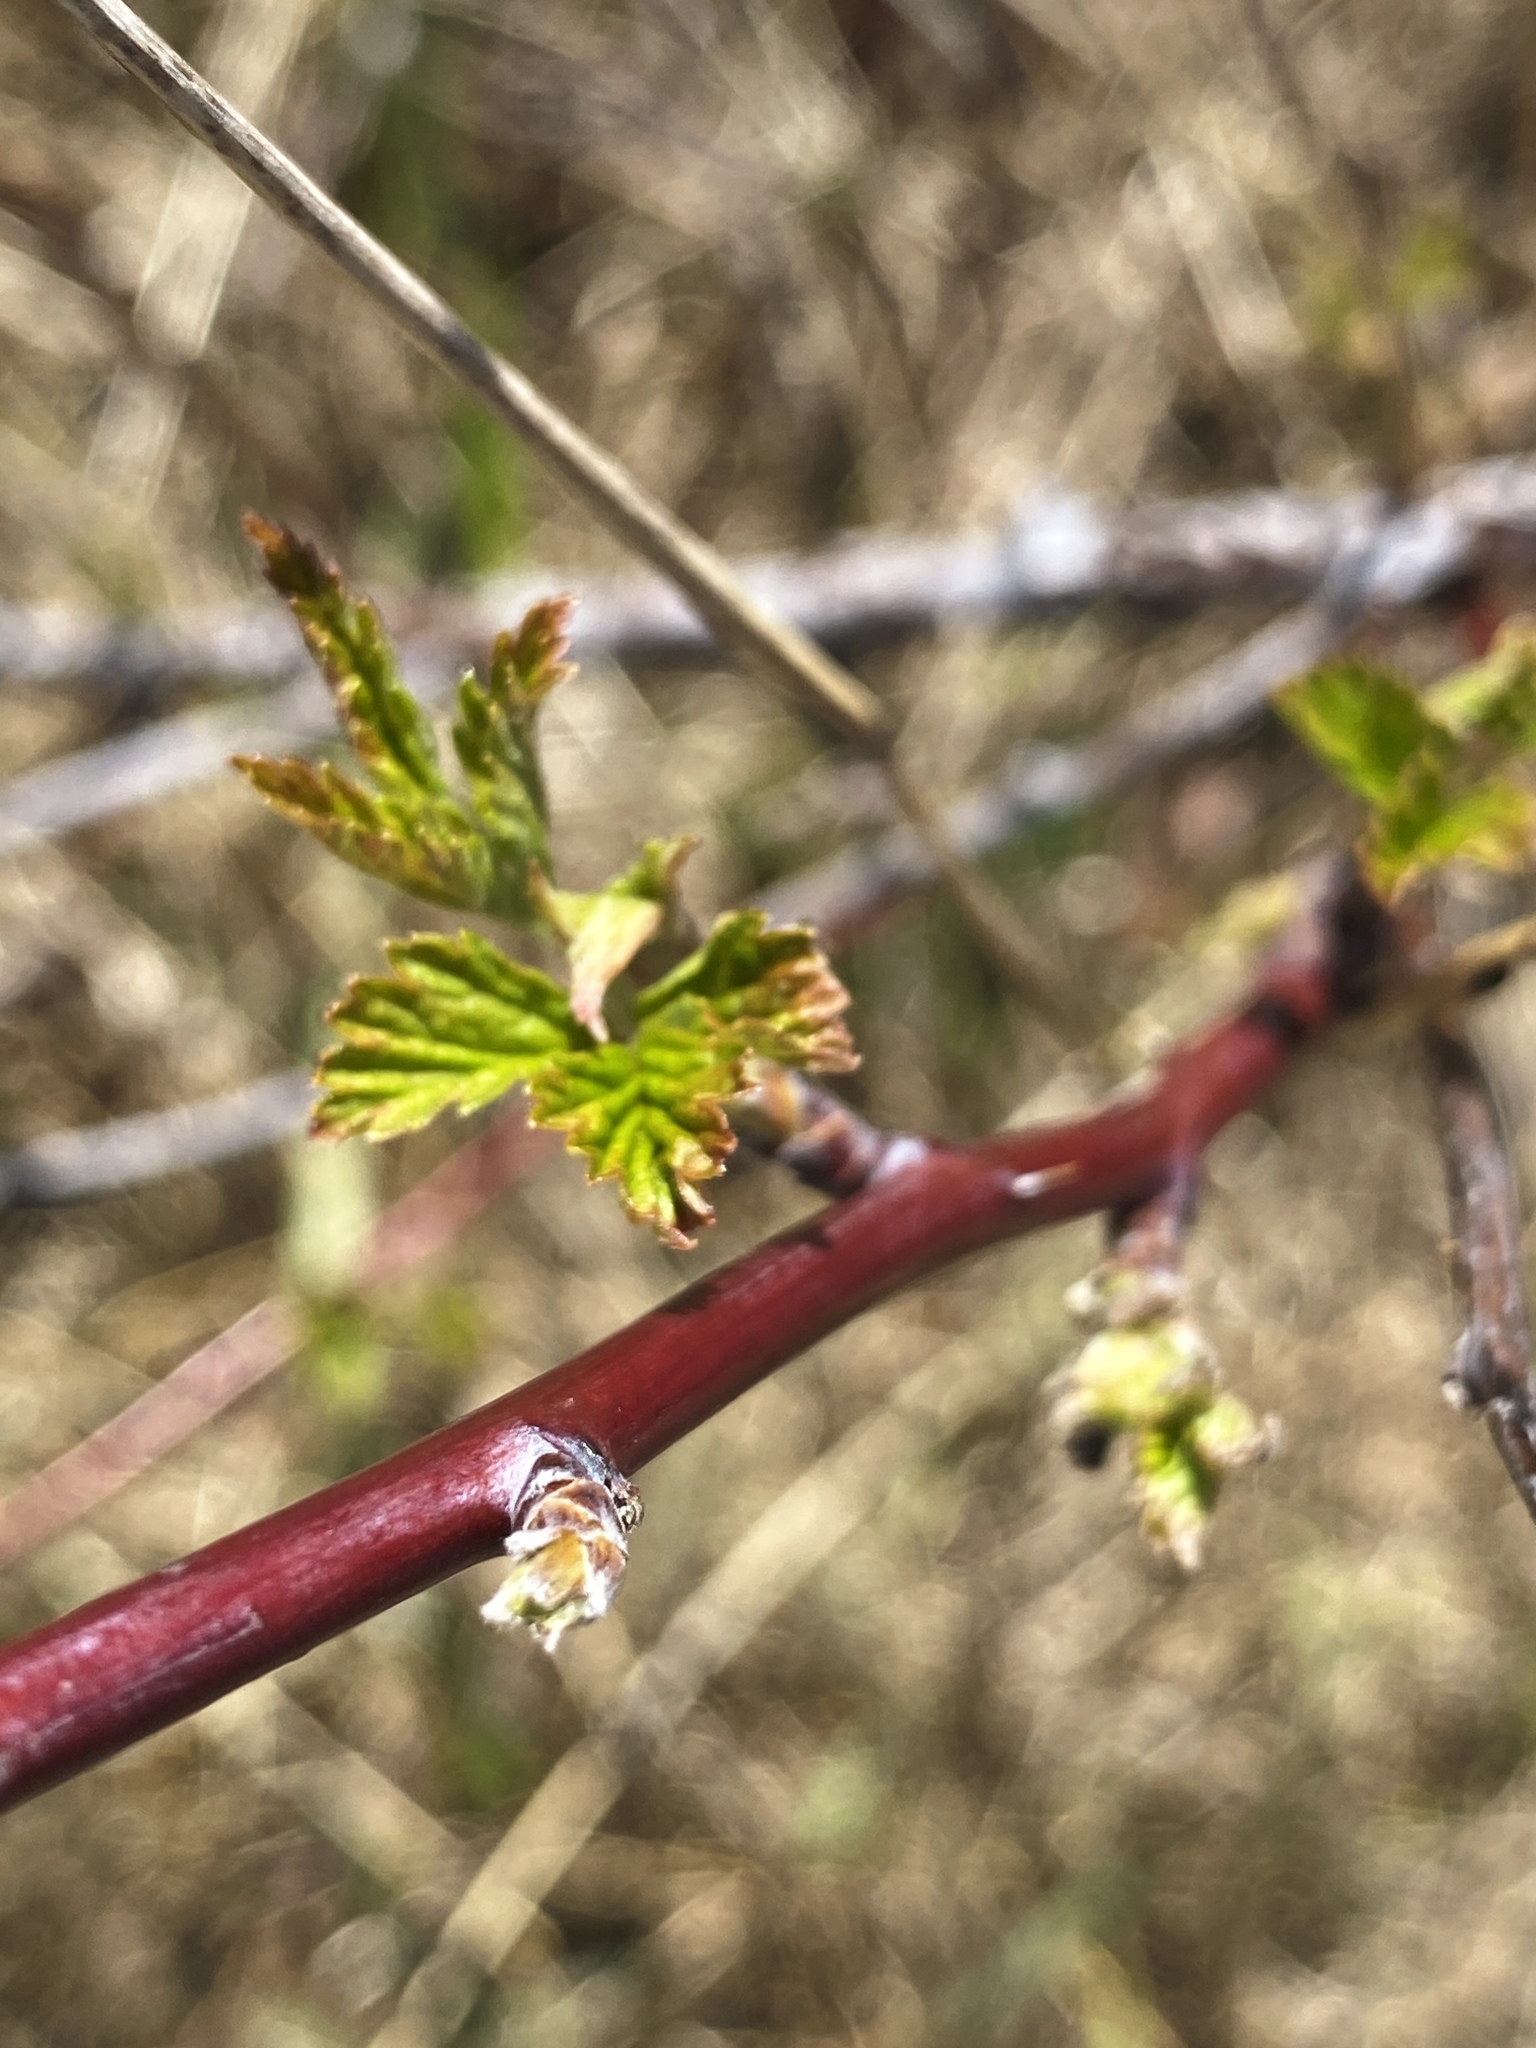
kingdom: Plantae
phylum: Tracheophyta
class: Magnoliopsida
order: Rosales
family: Rosaceae
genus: Rubus
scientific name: Rubus occidentalis
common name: Black raspberry
